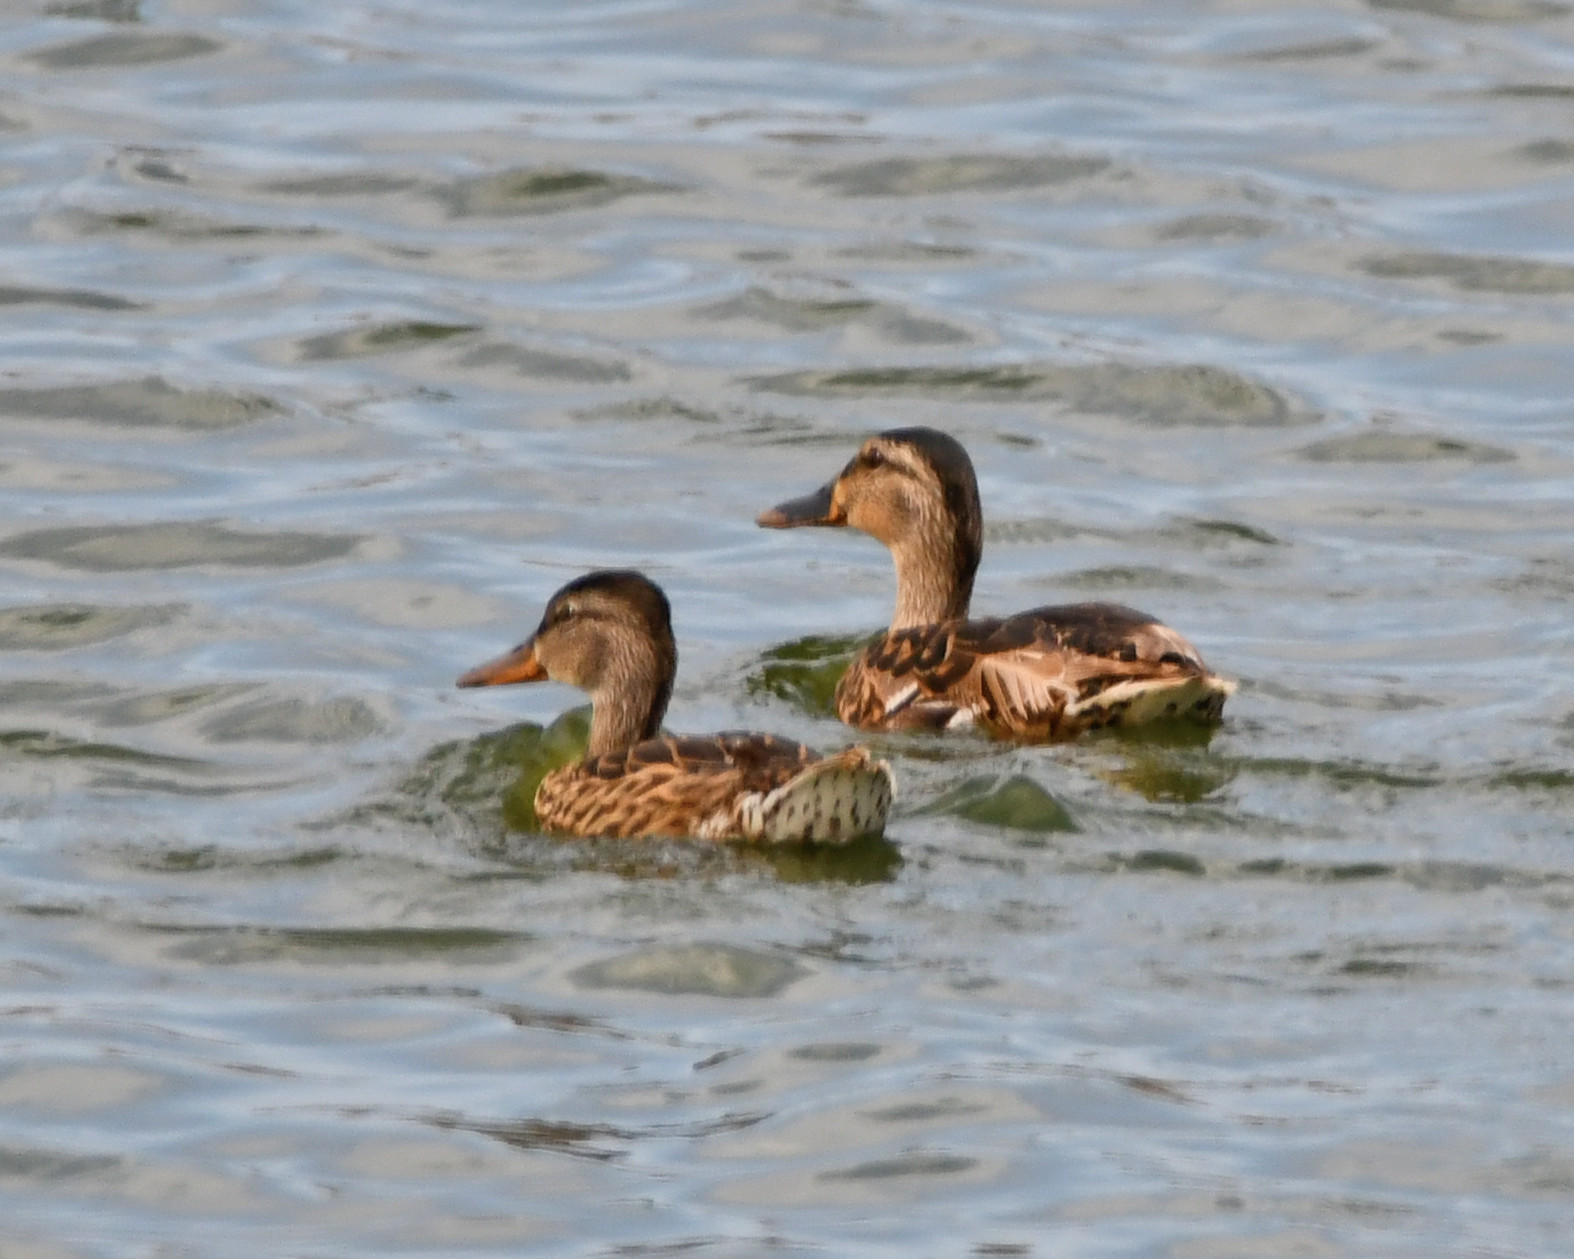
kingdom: Animalia
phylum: Chordata
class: Aves
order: Anseriformes
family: Anatidae
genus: Anas
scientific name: Anas platyrhynchos
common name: Mallard
